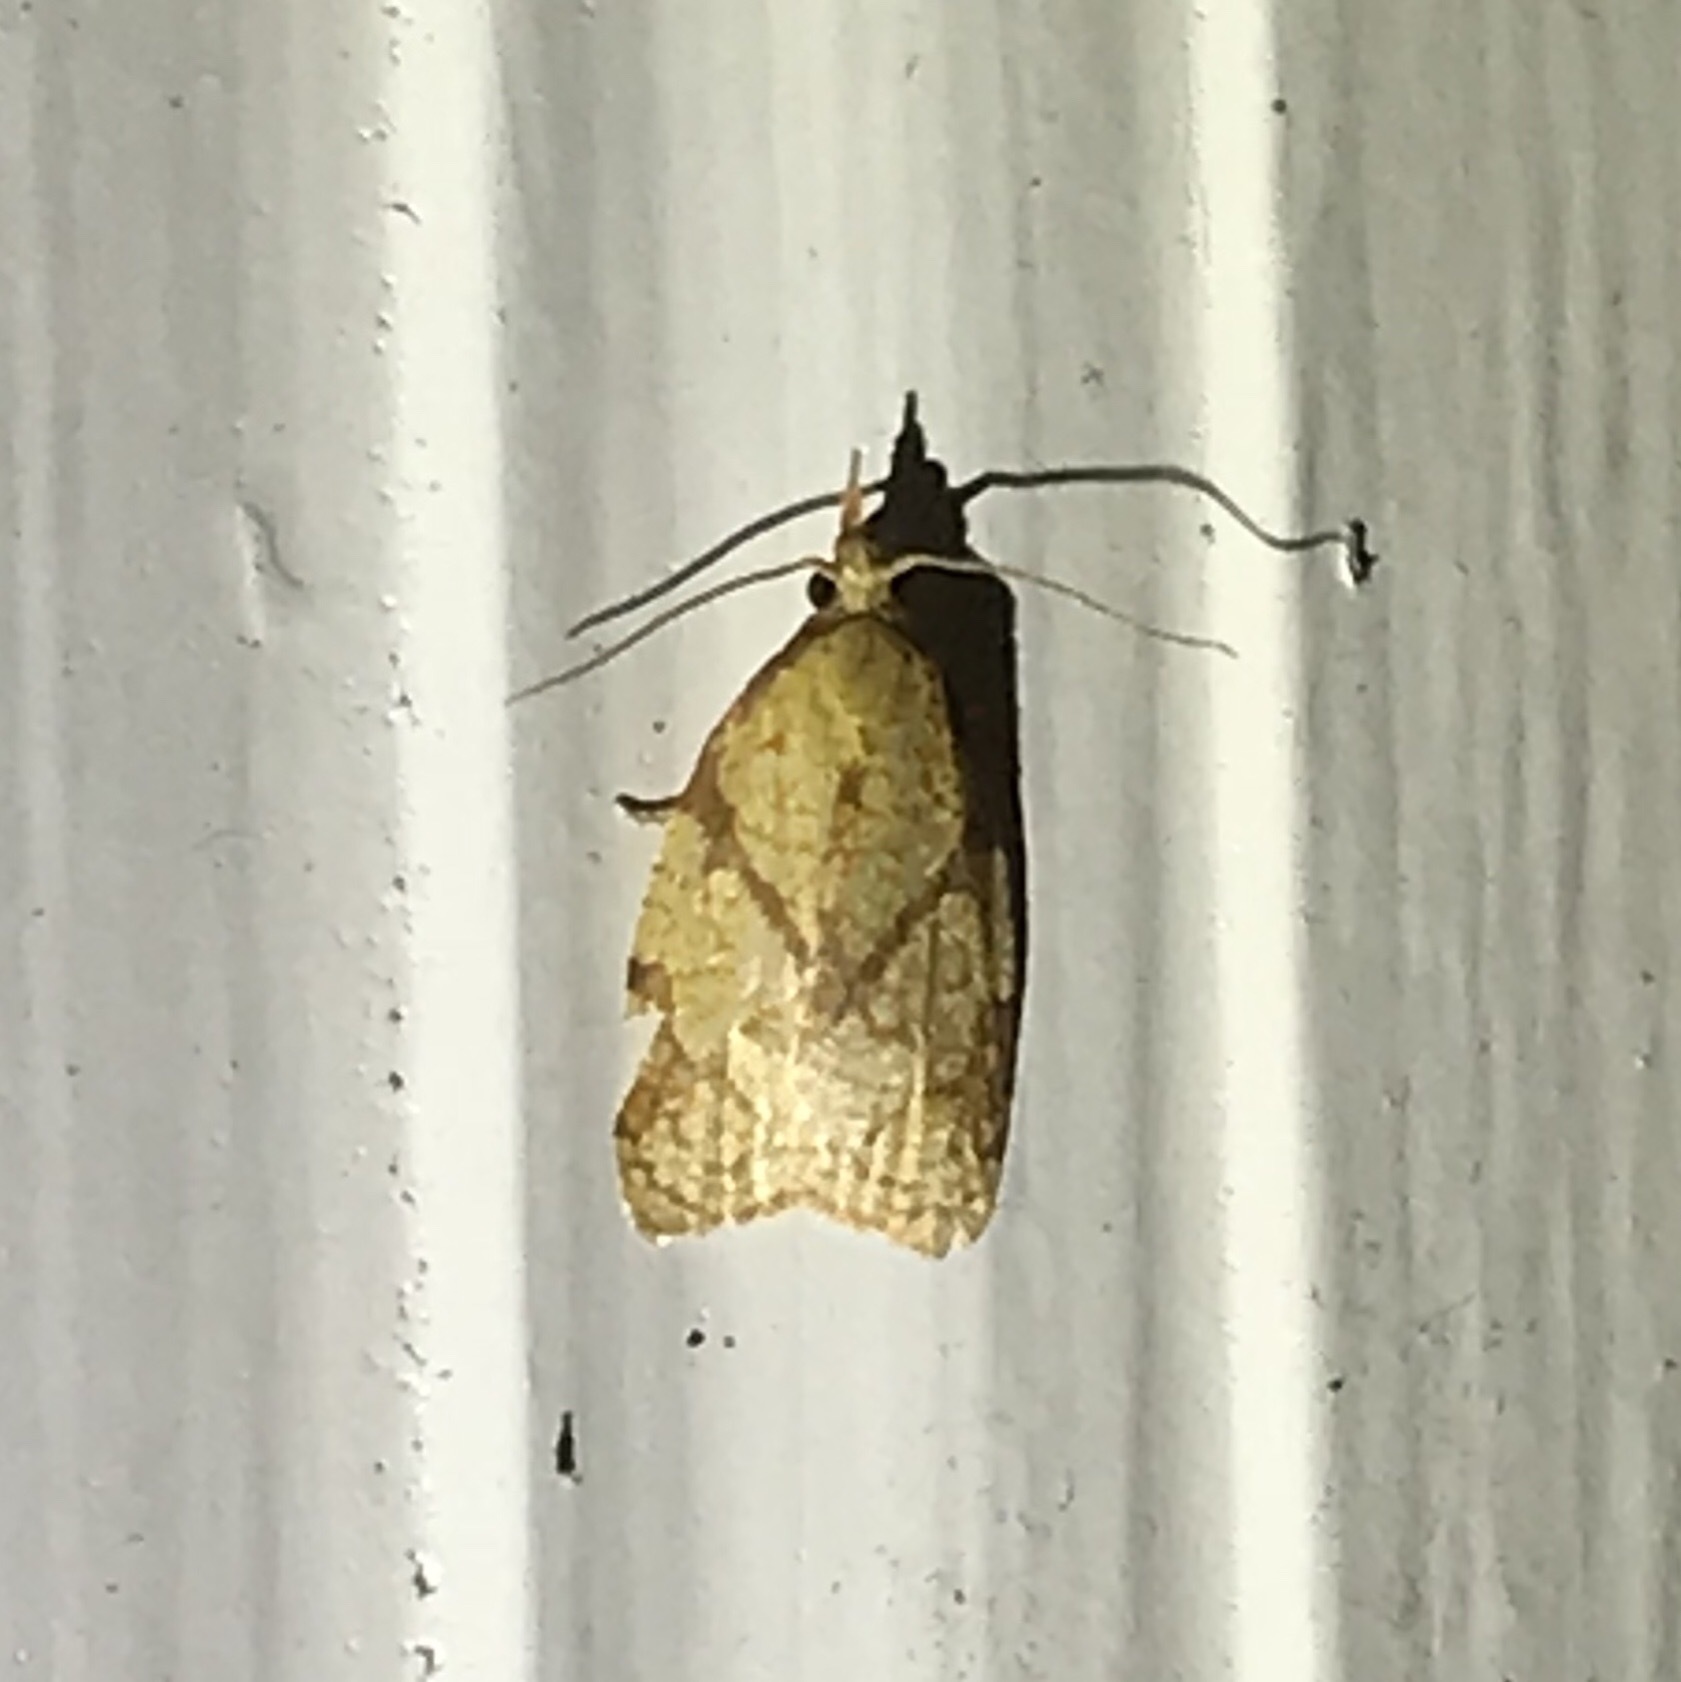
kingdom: Animalia
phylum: Arthropoda
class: Insecta
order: Lepidoptera
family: Tortricidae
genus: Cenopis
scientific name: Cenopis reticulatana
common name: Reticulated fruitworm moth
